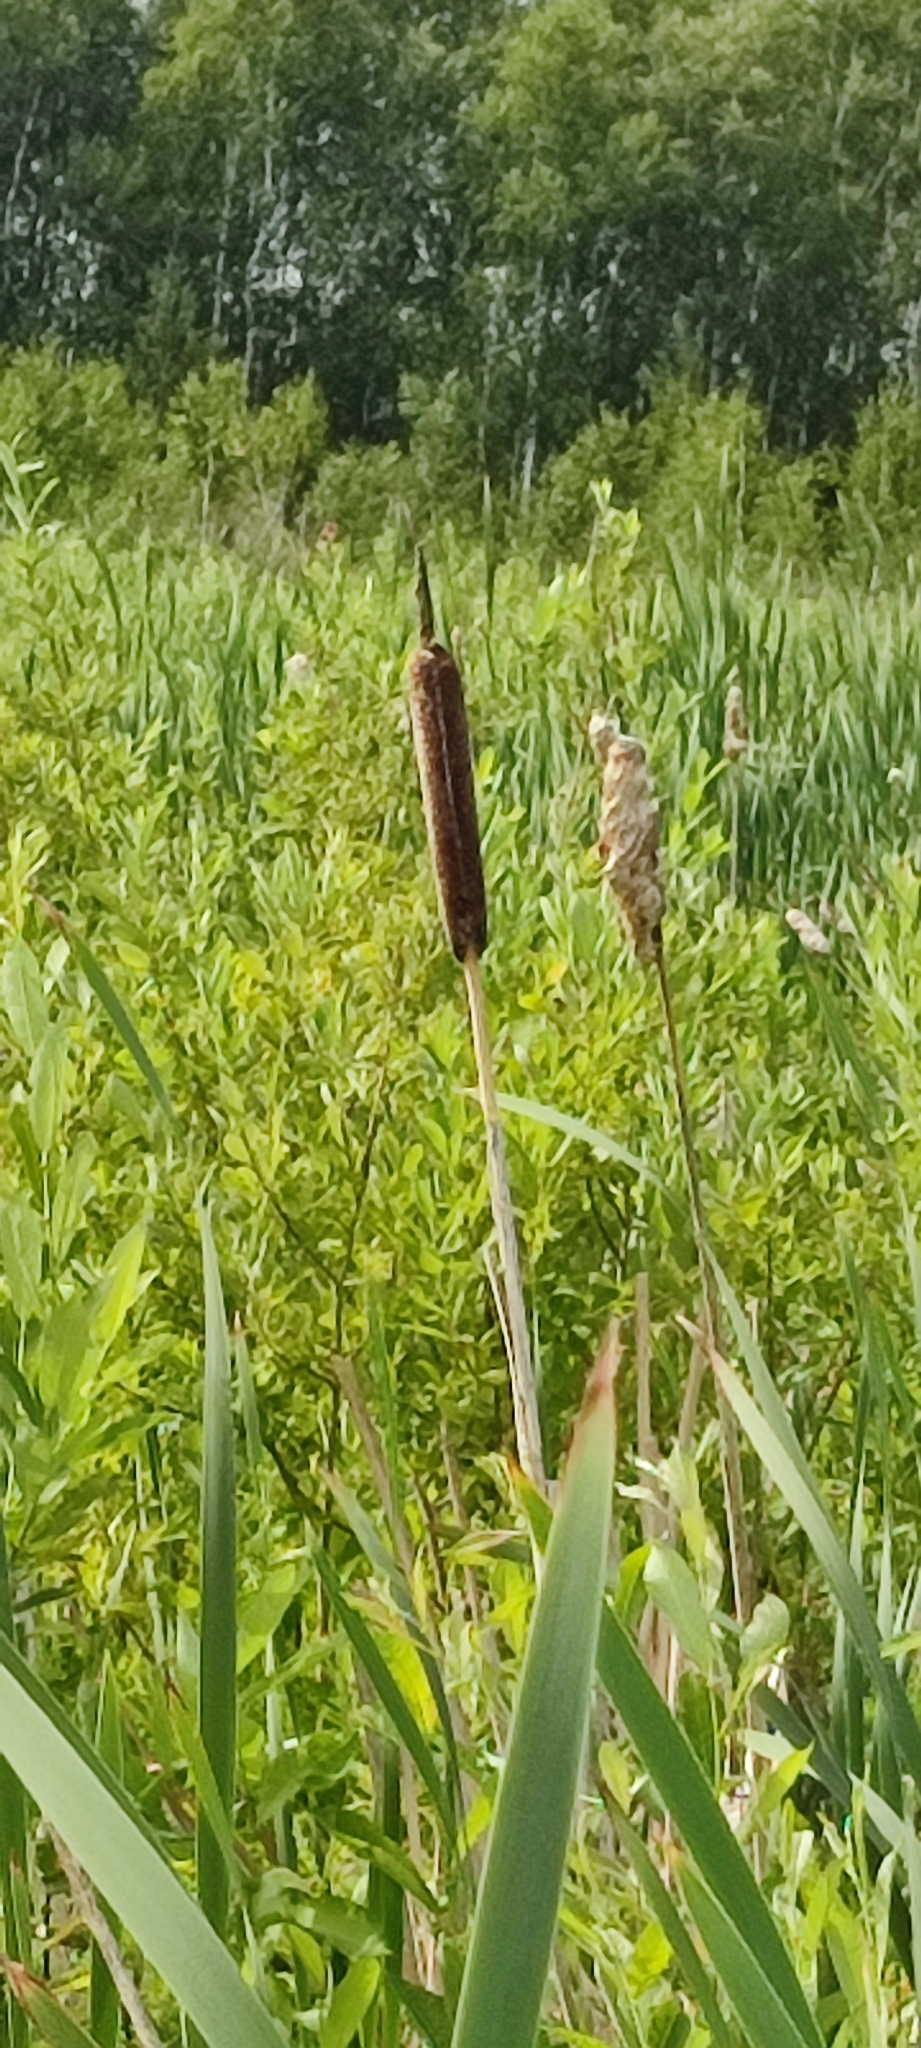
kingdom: Plantae
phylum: Tracheophyta
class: Liliopsida
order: Poales
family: Typhaceae
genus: Typha
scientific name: Typha incana
